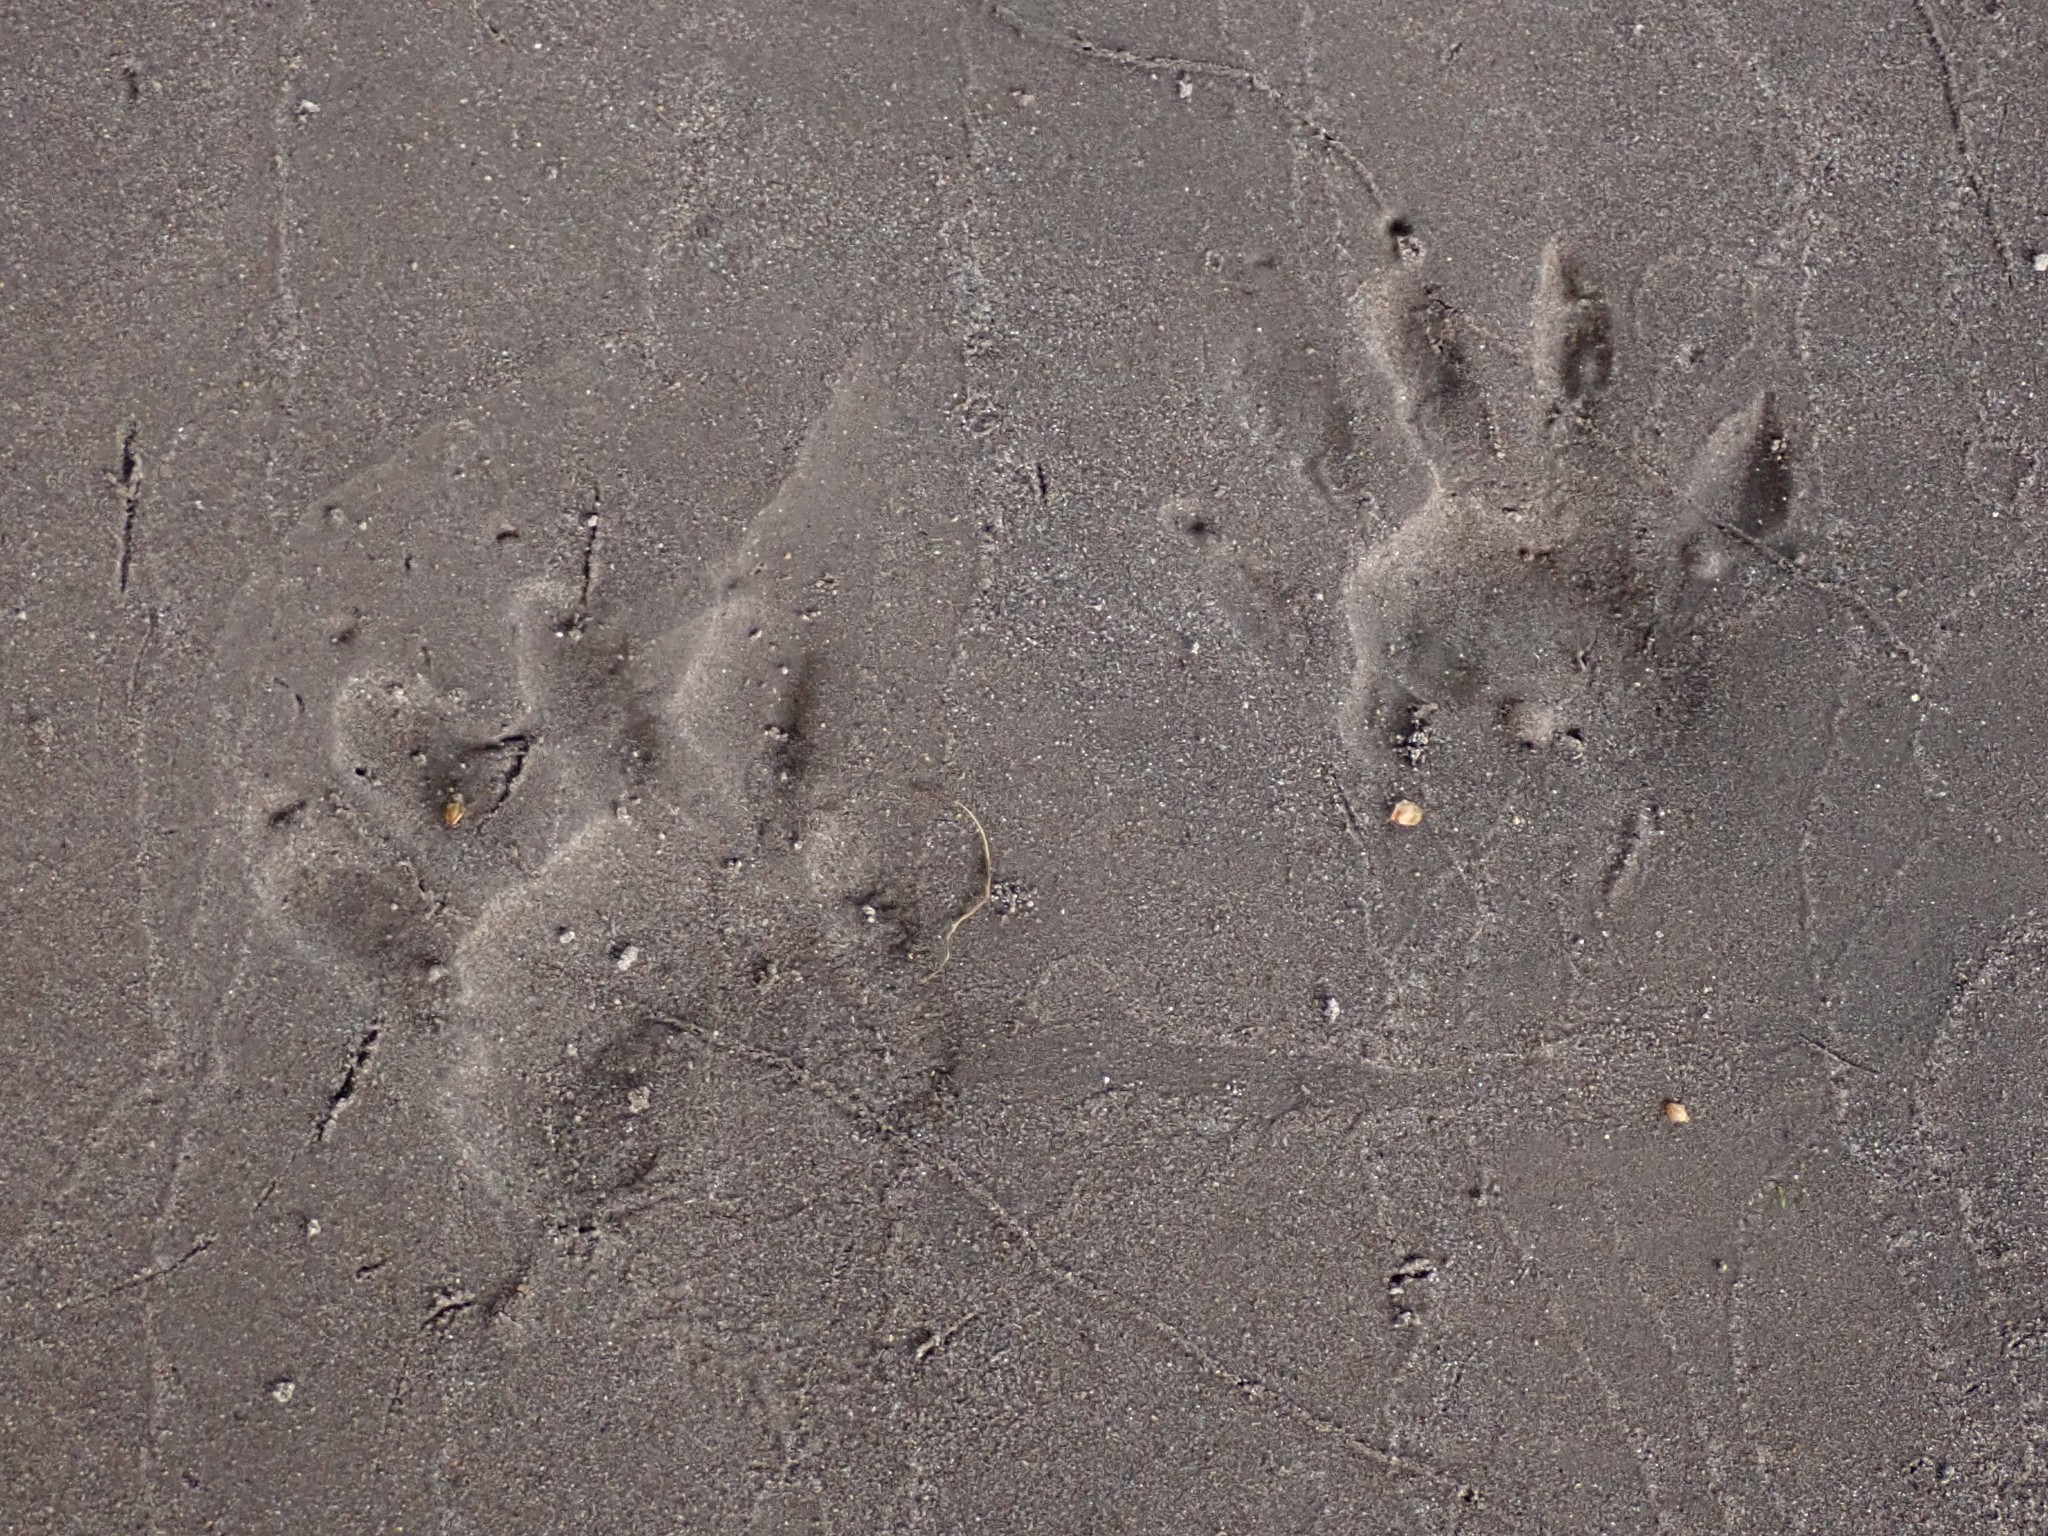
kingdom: Animalia
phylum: Chordata
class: Mammalia
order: Carnivora
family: Procyonidae
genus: Procyon
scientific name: Procyon lotor
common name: Raccoon
